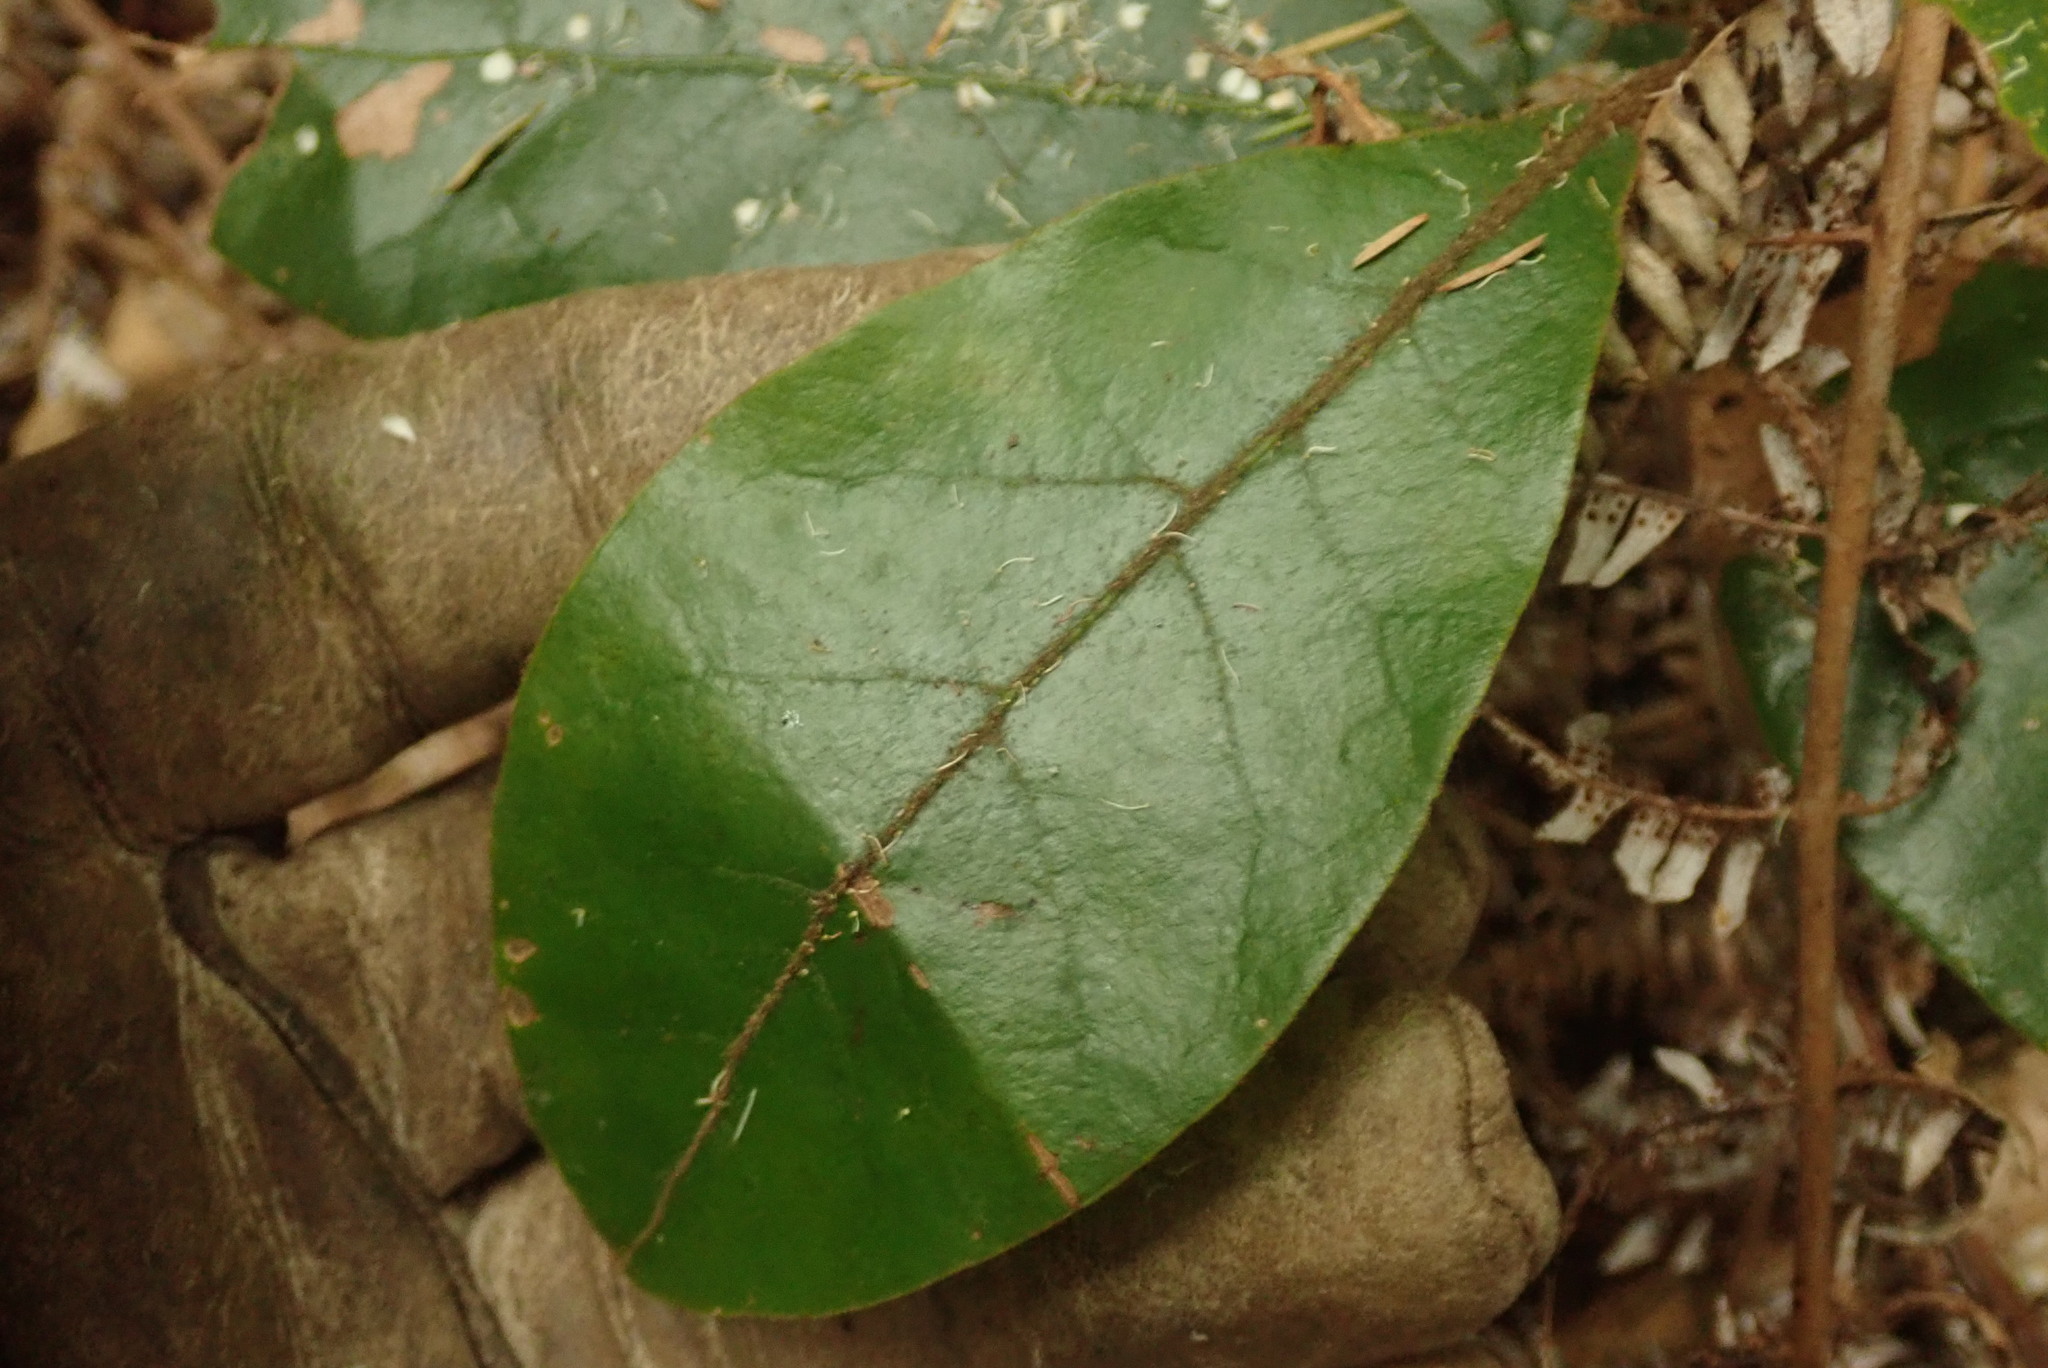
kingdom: Plantae
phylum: Tracheophyta
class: Magnoliopsida
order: Laurales
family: Lauraceae
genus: Beilschmiedia
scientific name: Beilschmiedia tarairi
